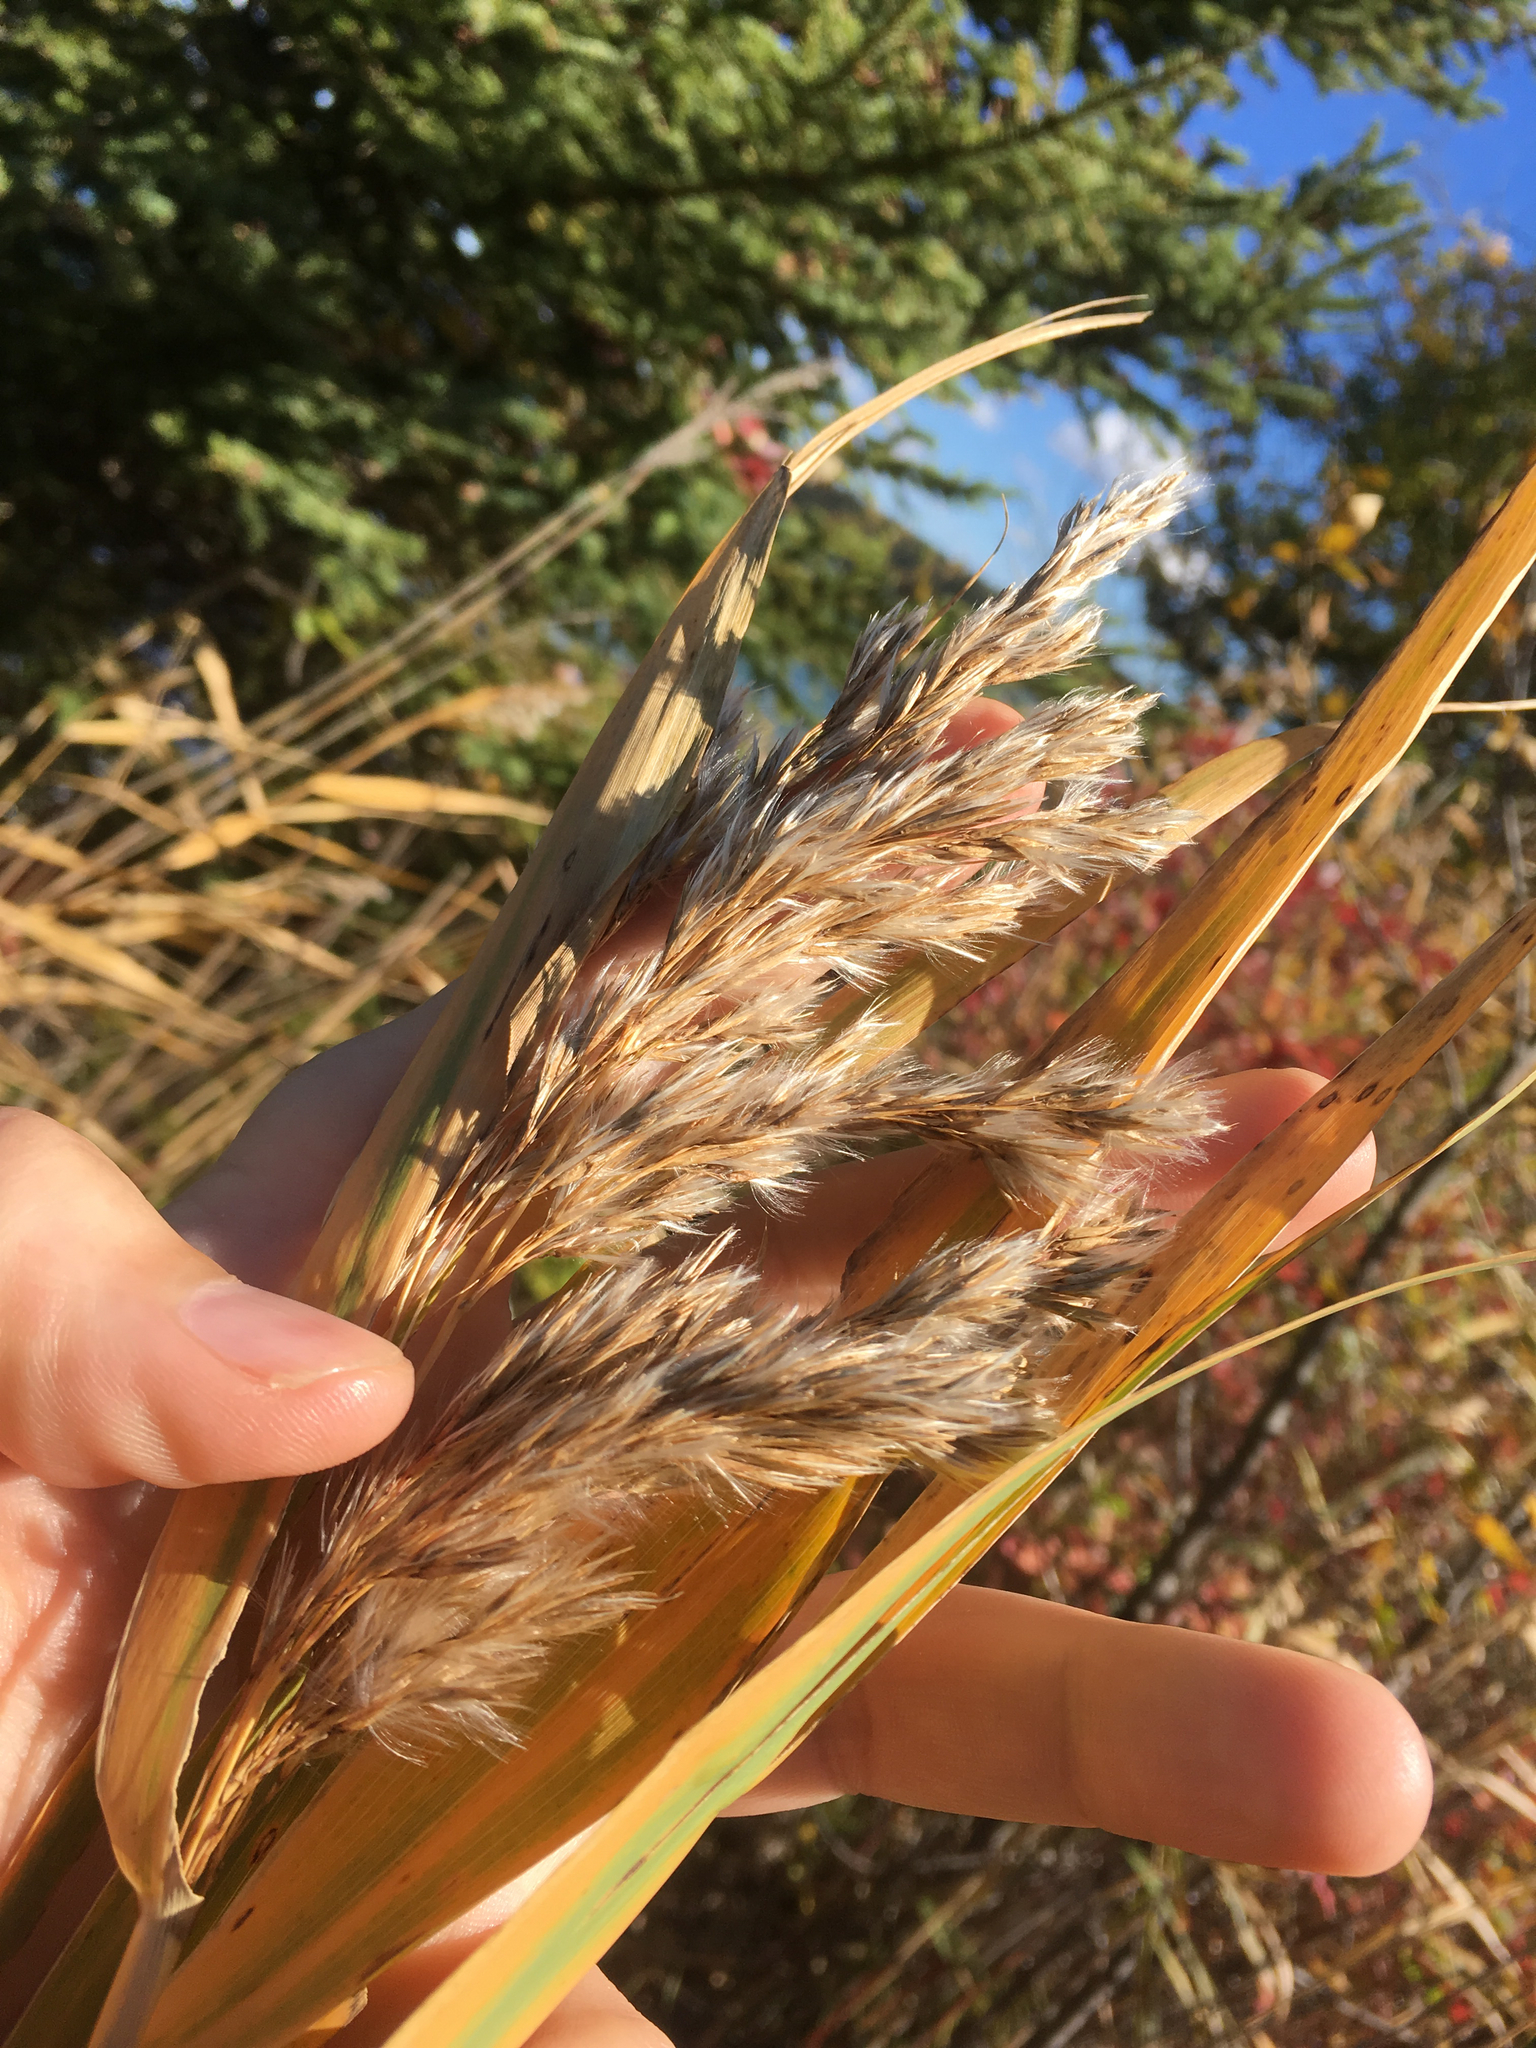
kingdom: Plantae
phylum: Tracheophyta
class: Liliopsida
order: Poales
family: Poaceae
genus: Phragmites
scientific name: Phragmites australis
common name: Common reed
